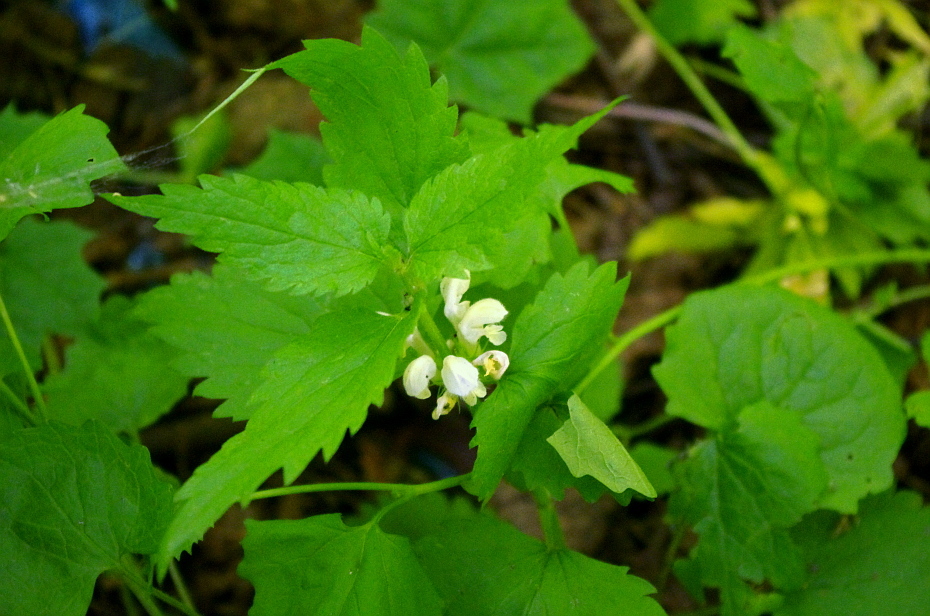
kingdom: Plantae
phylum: Tracheophyta
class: Magnoliopsida
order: Lamiales
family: Lamiaceae
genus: Lamium
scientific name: Lamium album
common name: White dead-nettle
